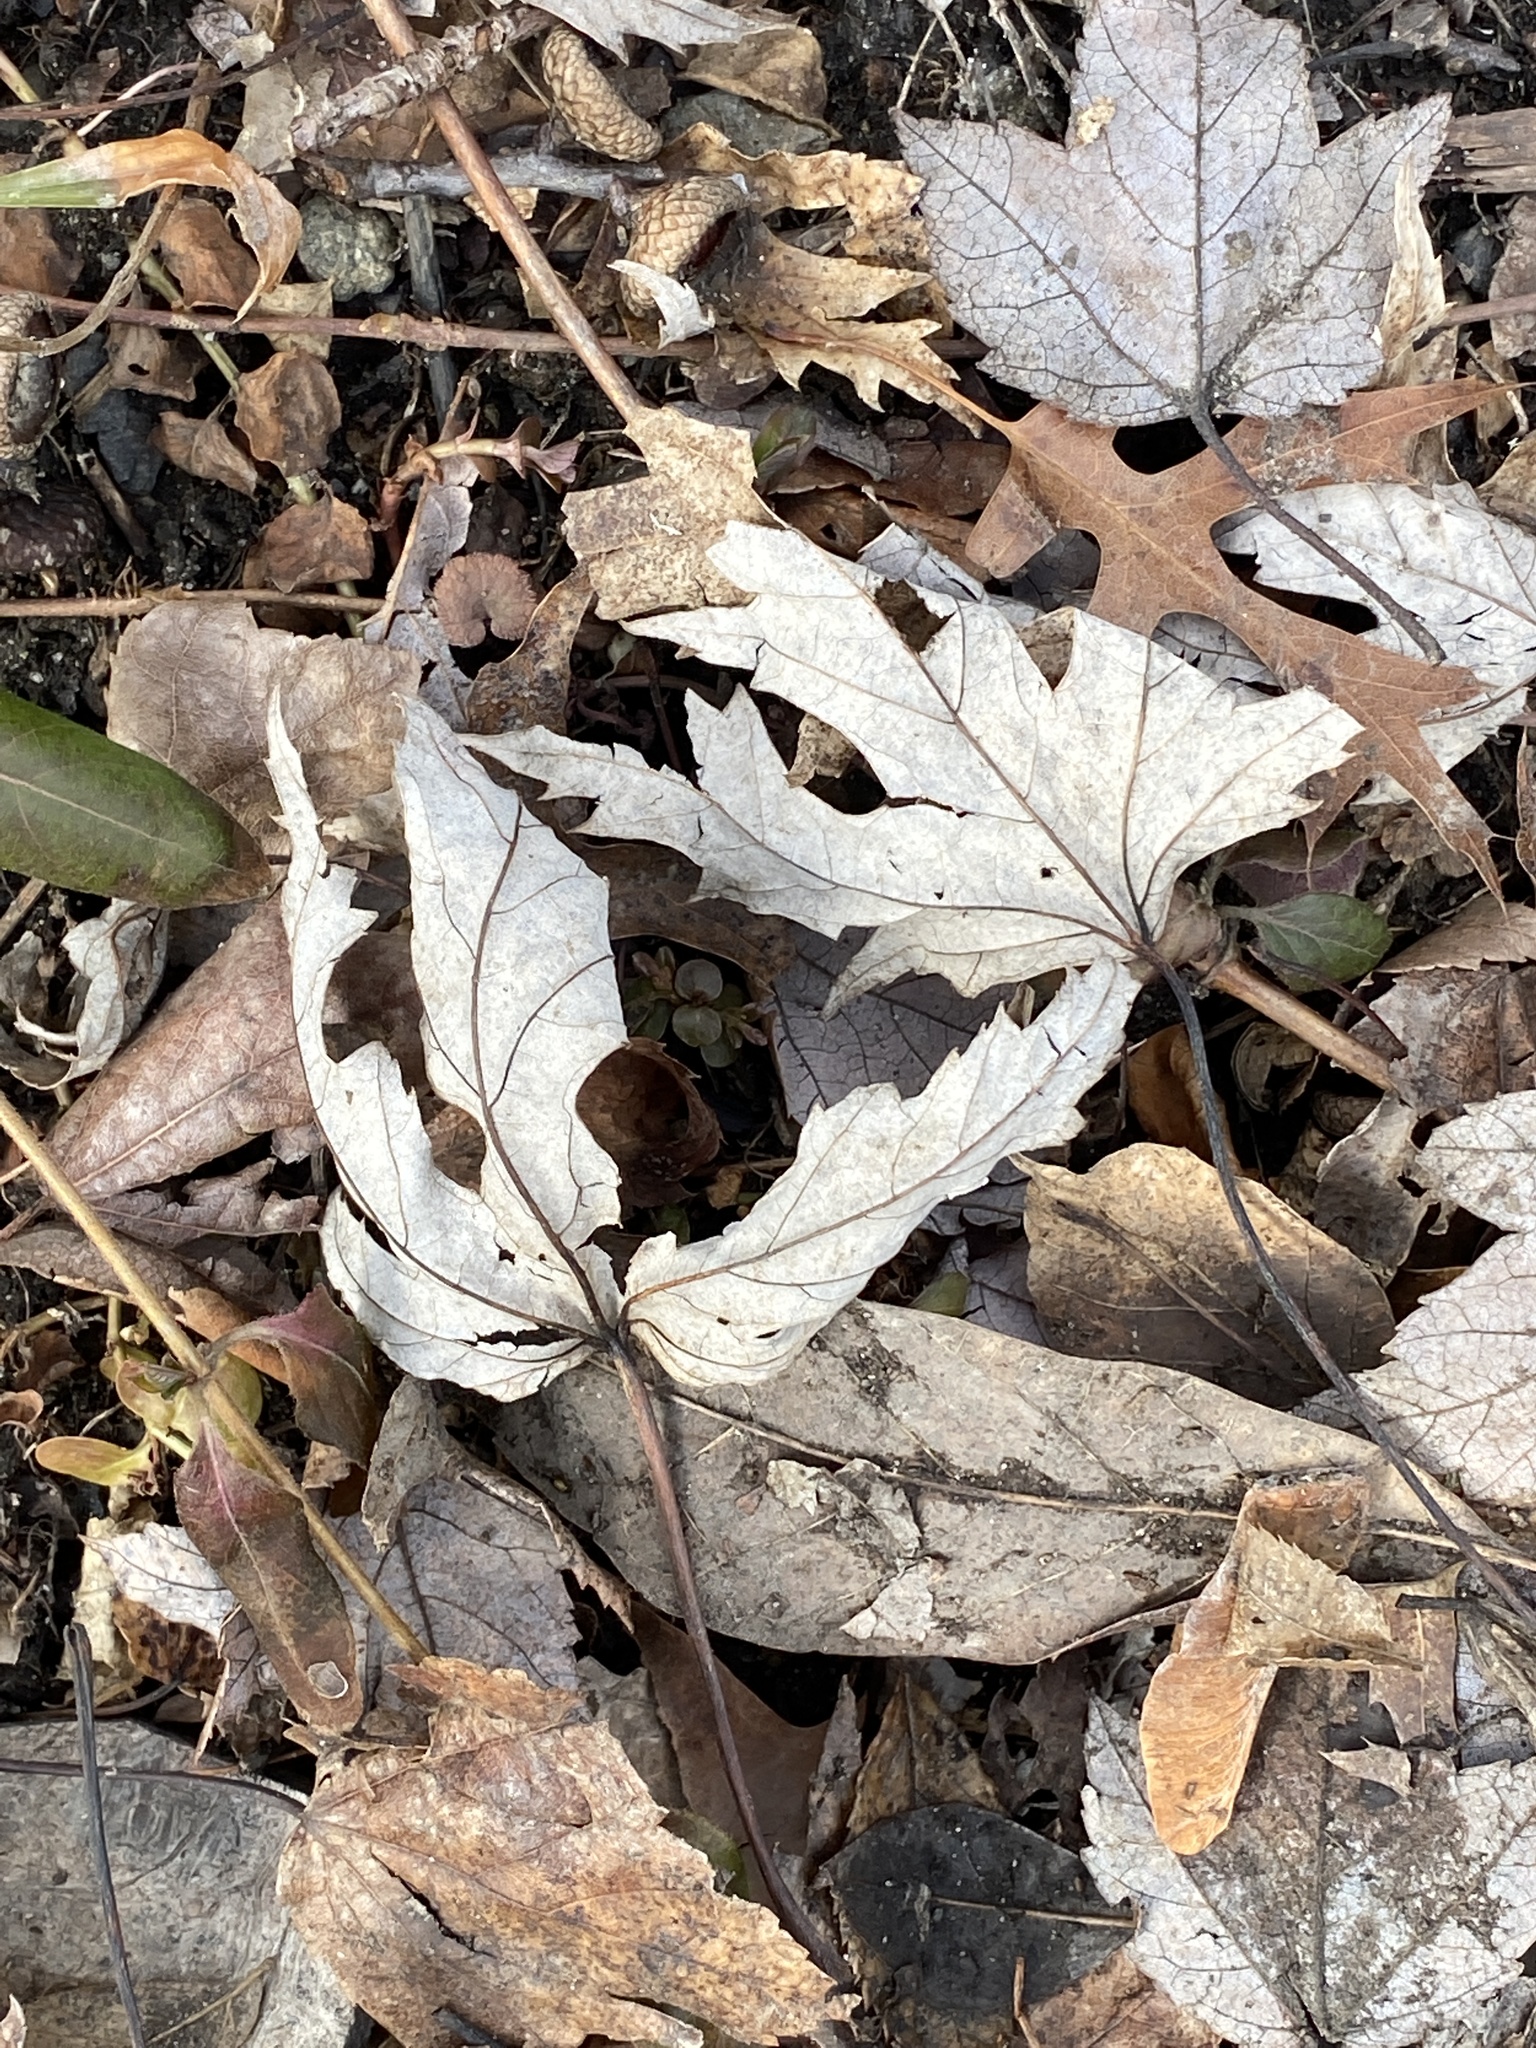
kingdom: Plantae
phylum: Tracheophyta
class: Magnoliopsida
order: Sapindales
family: Sapindaceae
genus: Acer
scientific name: Acer saccharinum
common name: Silver maple
